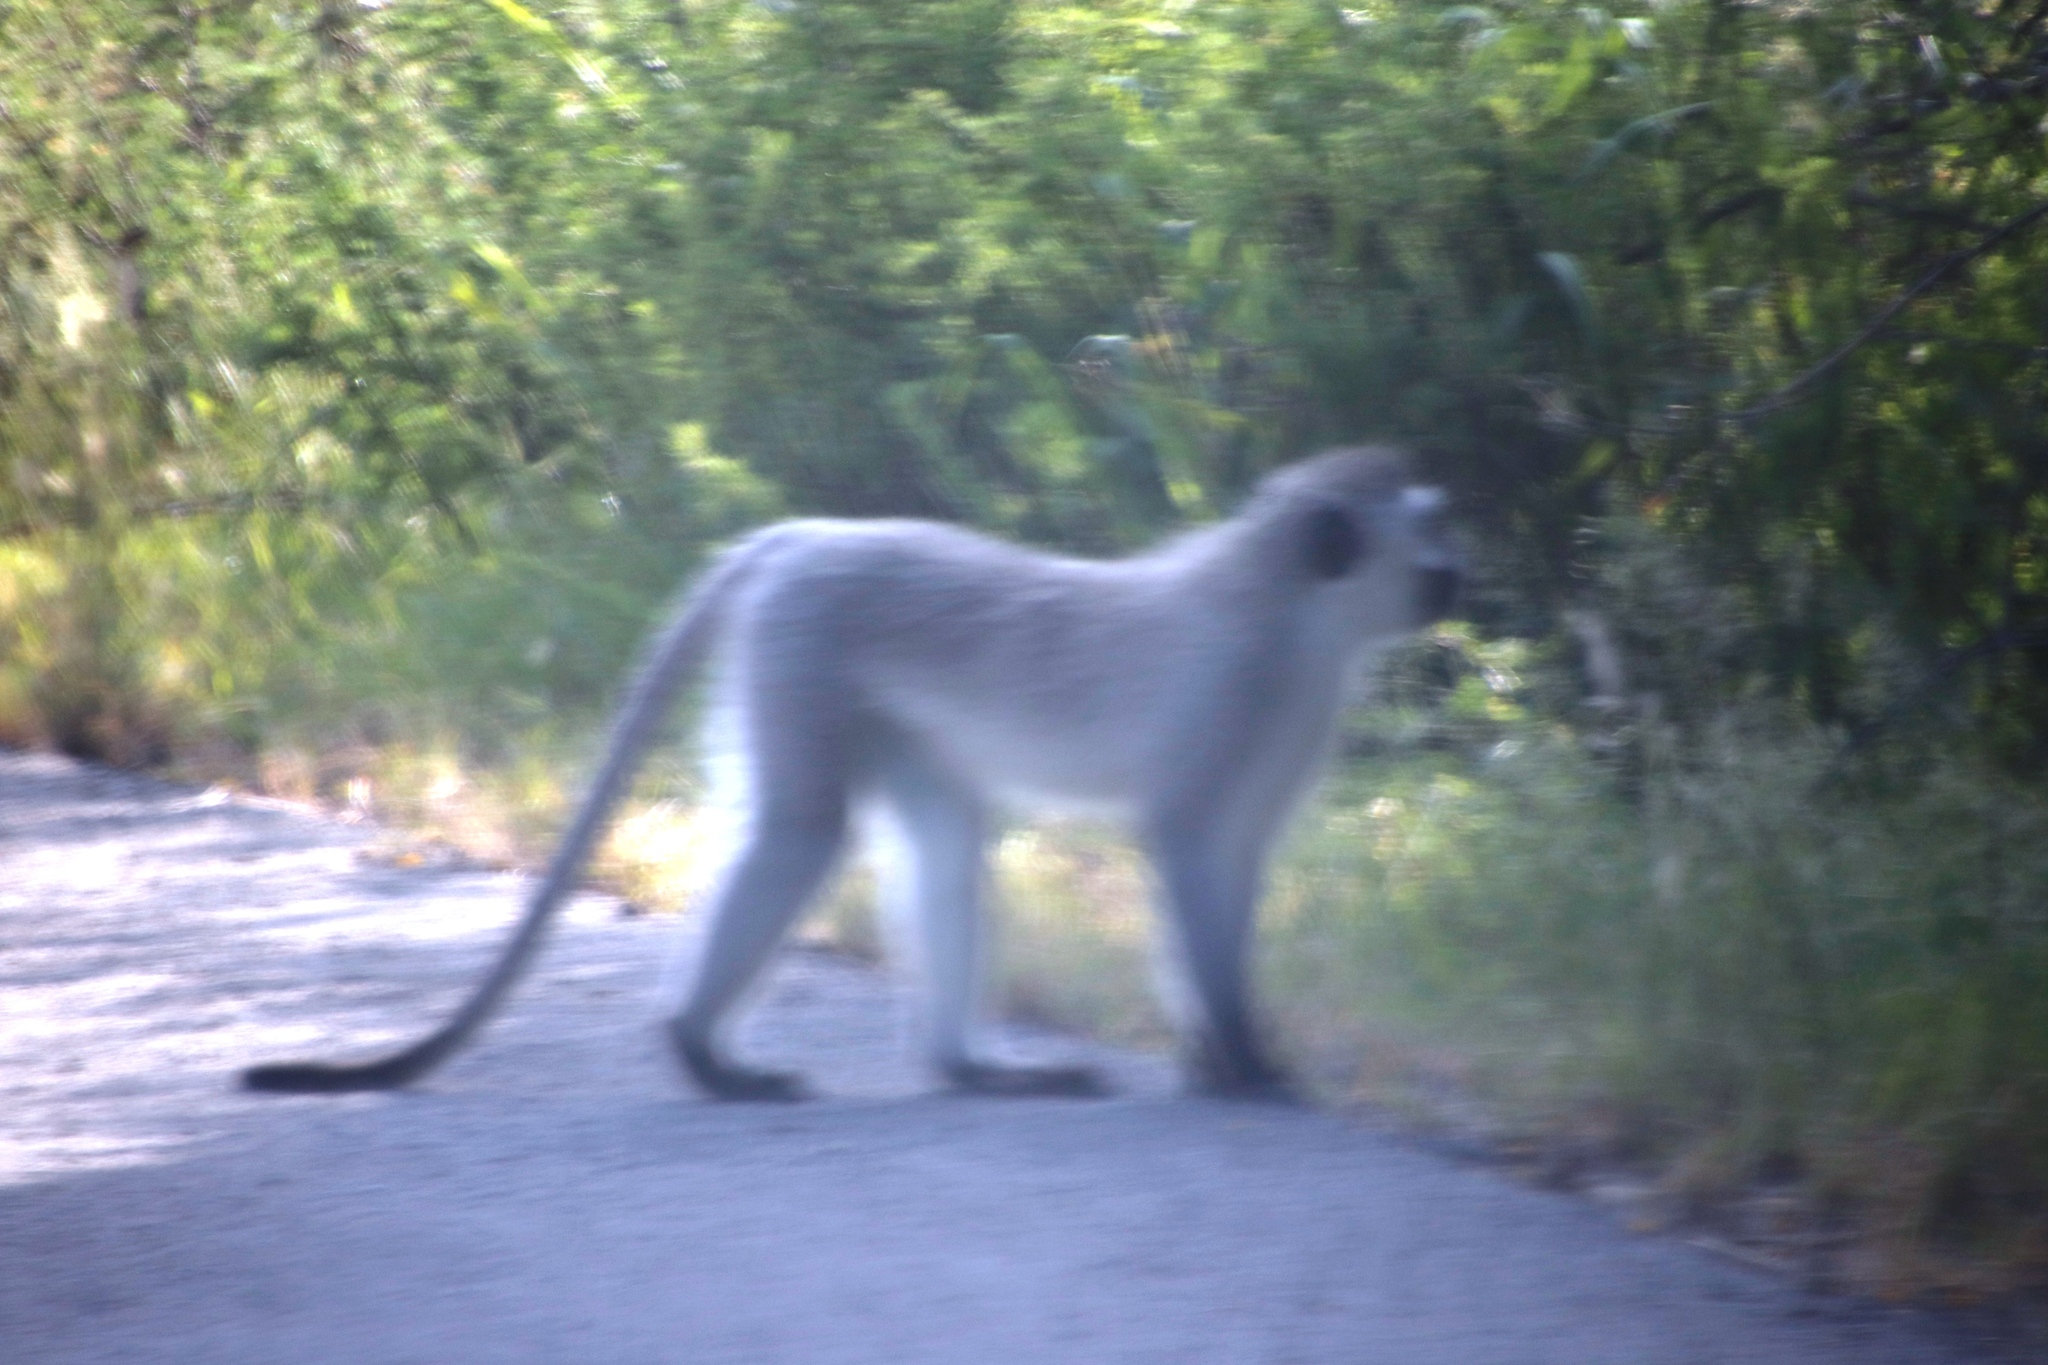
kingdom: Animalia
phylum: Chordata
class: Mammalia
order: Primates
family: Cercopithecidae
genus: Chlorocebus
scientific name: Chlorocebus pygerythrus
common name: Vervet monkey
